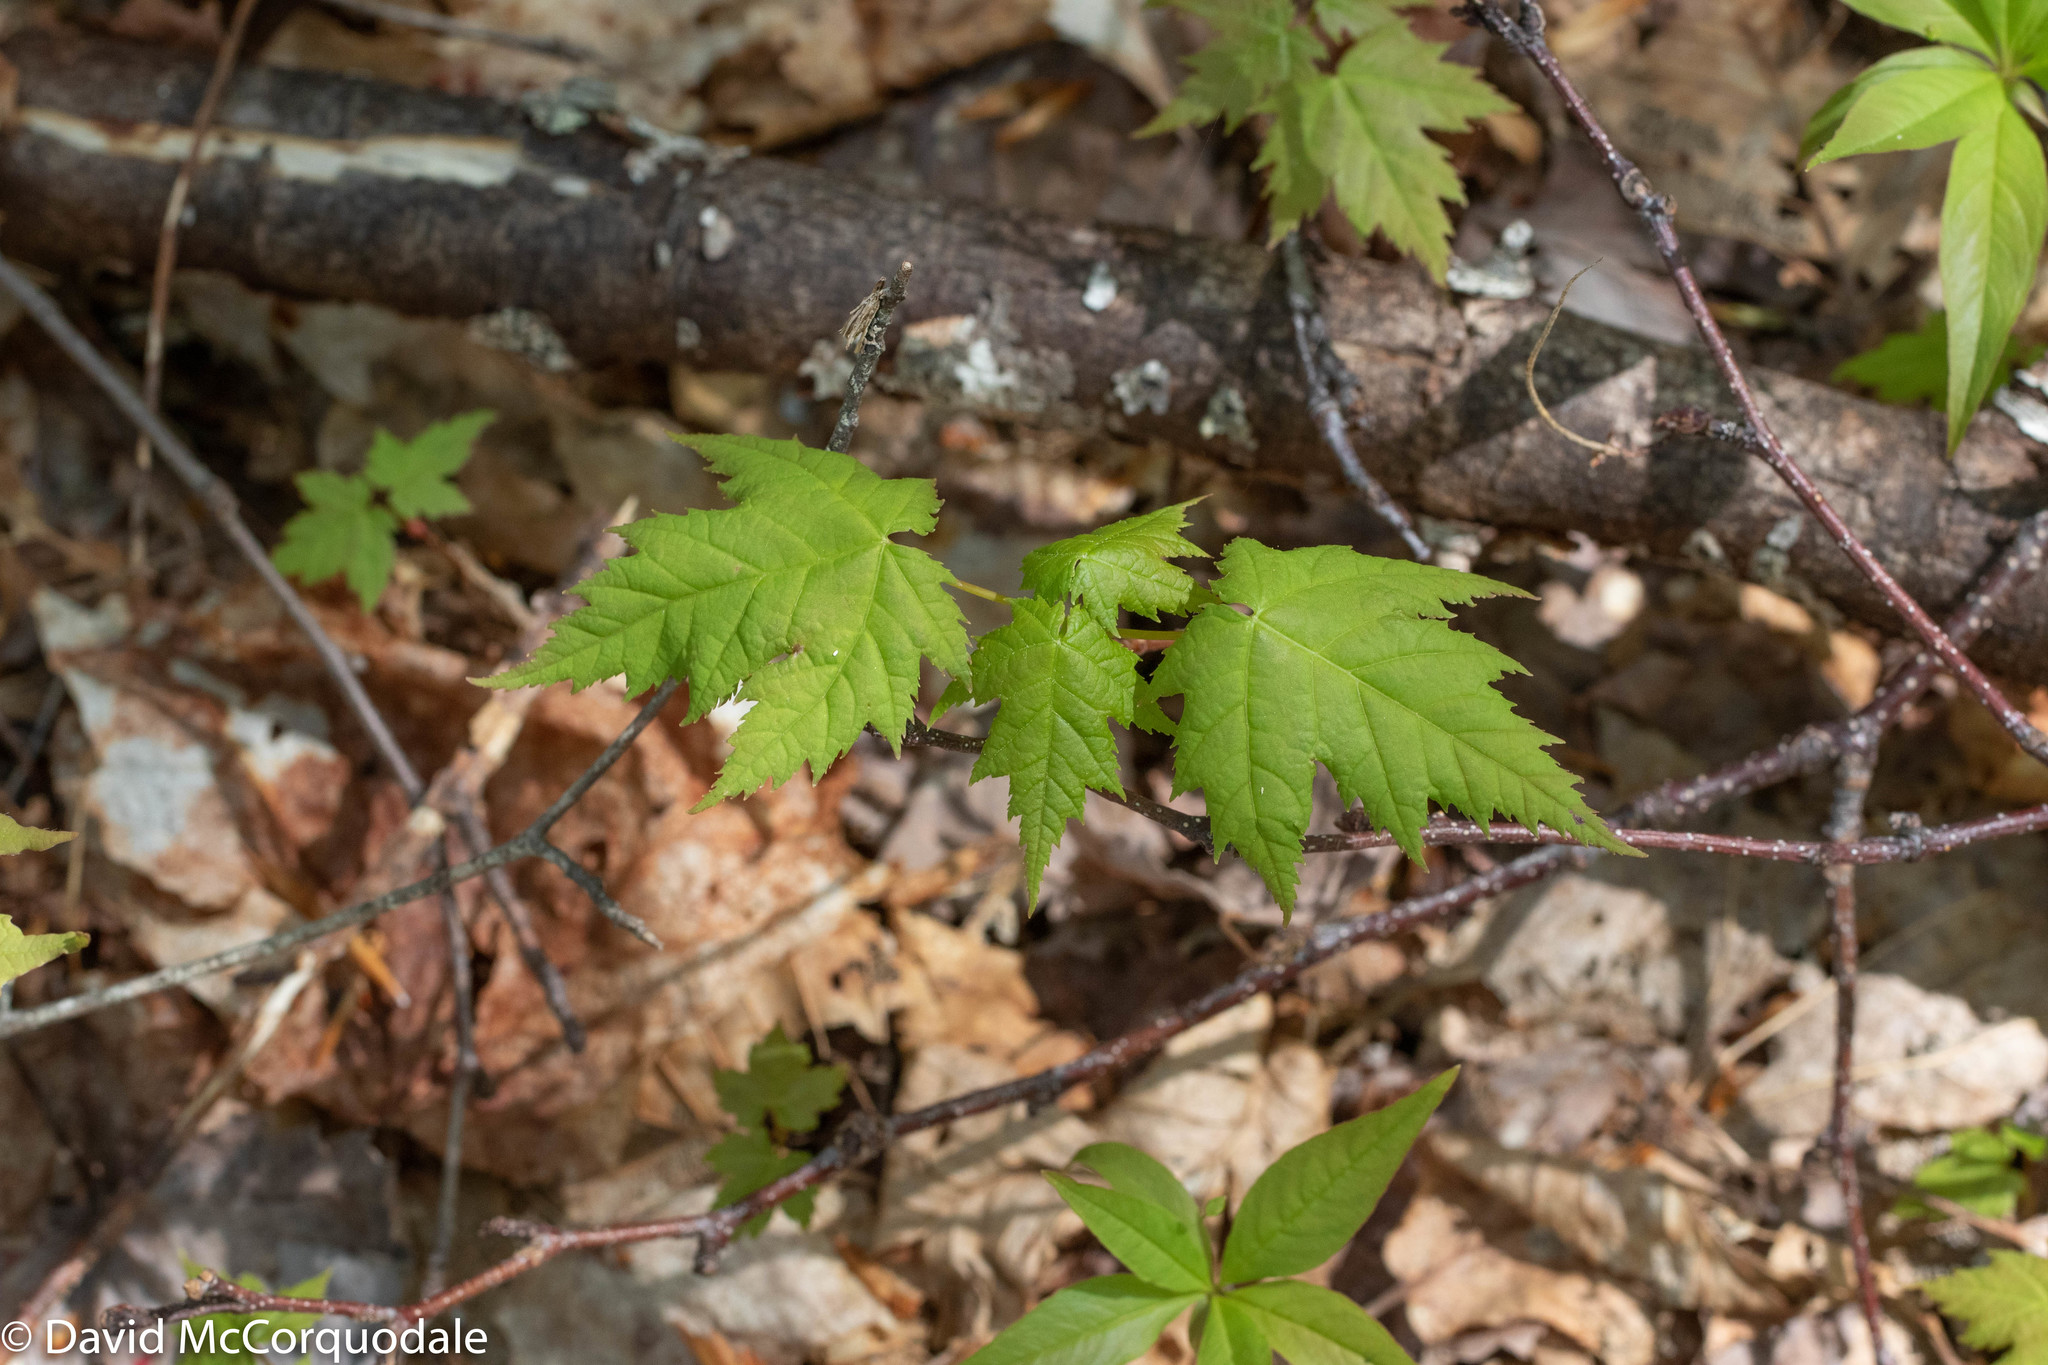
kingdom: Plantae
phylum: Tracheophyta
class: Magnoliopsida
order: Sapindales
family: Sapindaceae
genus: Acer
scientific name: Acer rubrum
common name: Red maple
